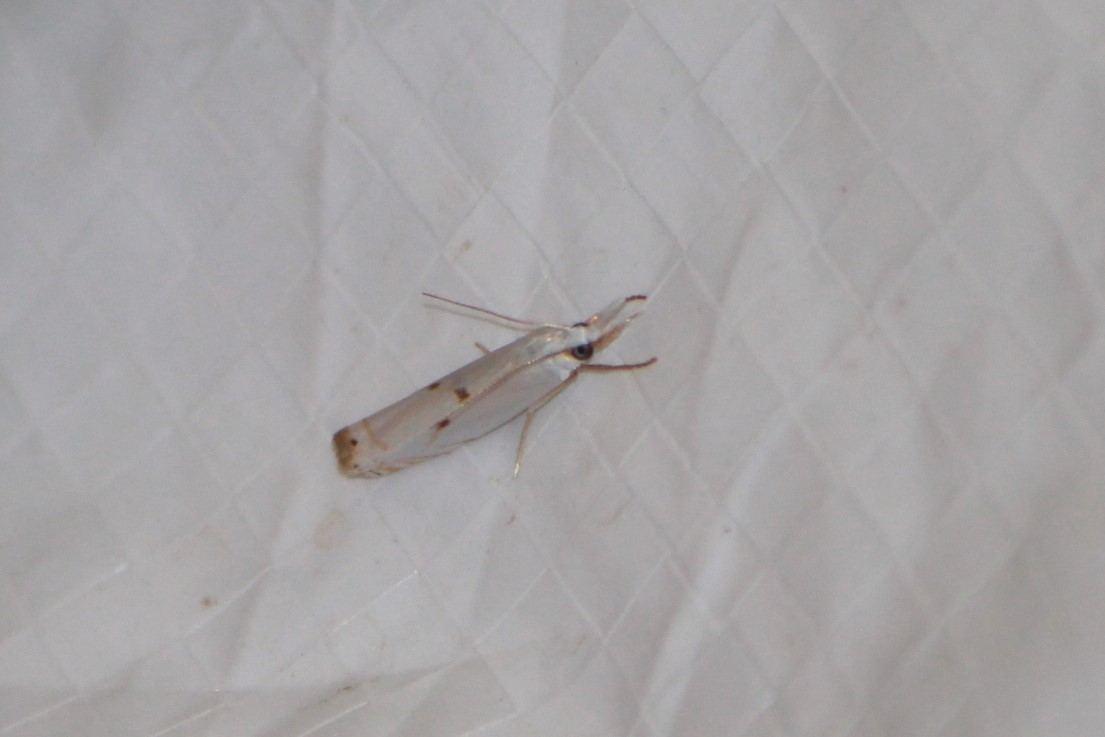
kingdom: Animalia
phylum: Arthropoda
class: Insecta
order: Lepidoptera
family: Crambidae
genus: Microcrambus
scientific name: Microcrambus biguttellus
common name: Gold-stripe grass-veneer moth
